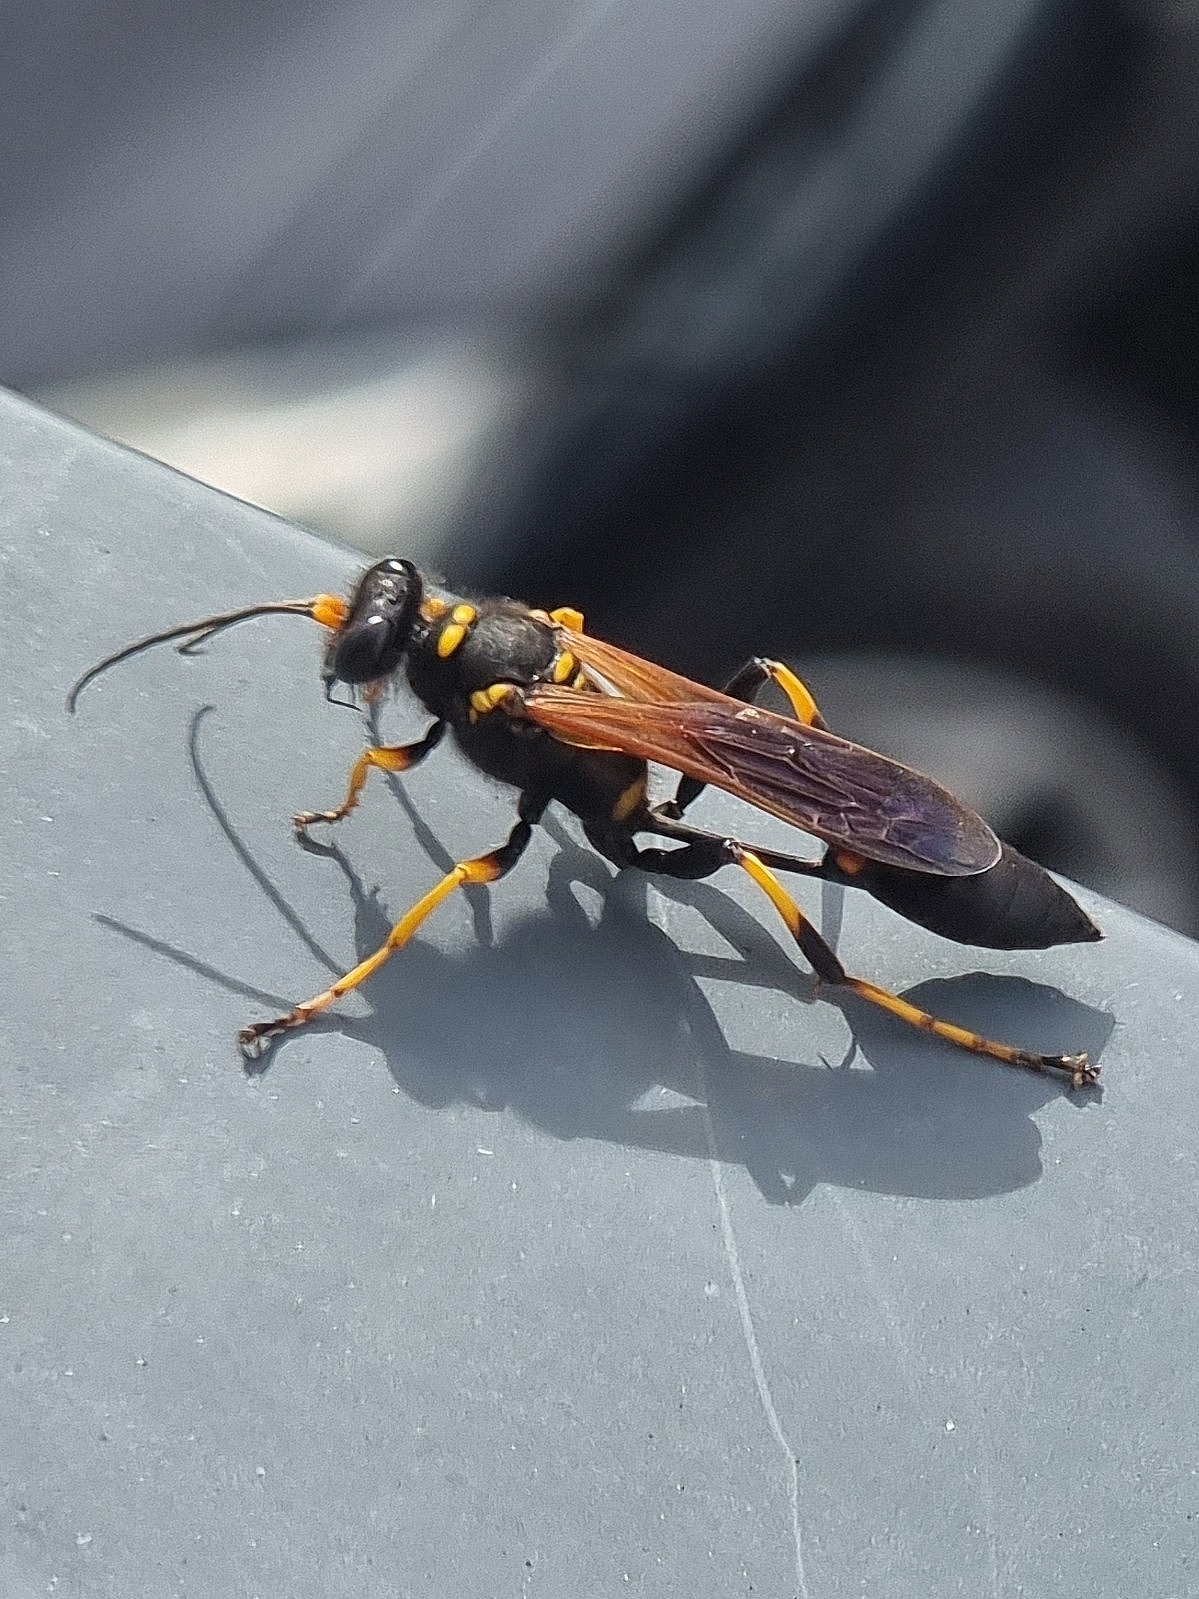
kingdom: Animalia
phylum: Arthropoda
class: Insecta
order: Hymenoptera
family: Sphecidae
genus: Sceliphron
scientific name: Sceliphron caementarium
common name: Mud dauber
